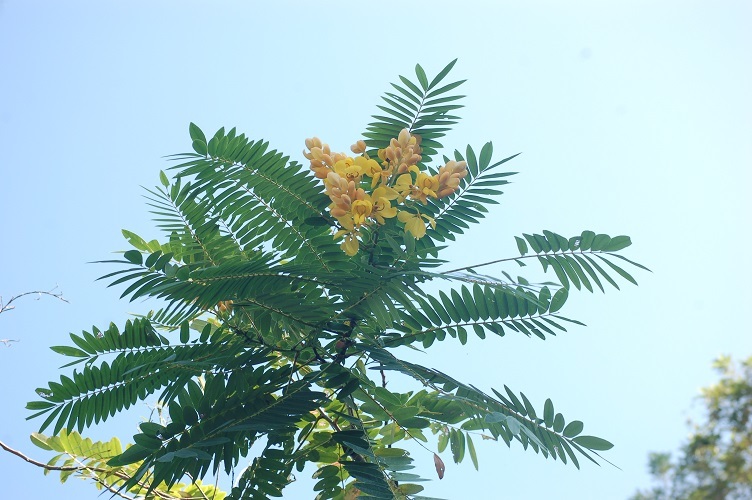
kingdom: Plantae
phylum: Tracheophyta
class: Magnoliopsida
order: Fabales
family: Fabaceae
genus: Senna
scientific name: Senna spectabilis
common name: Casia amarilla
